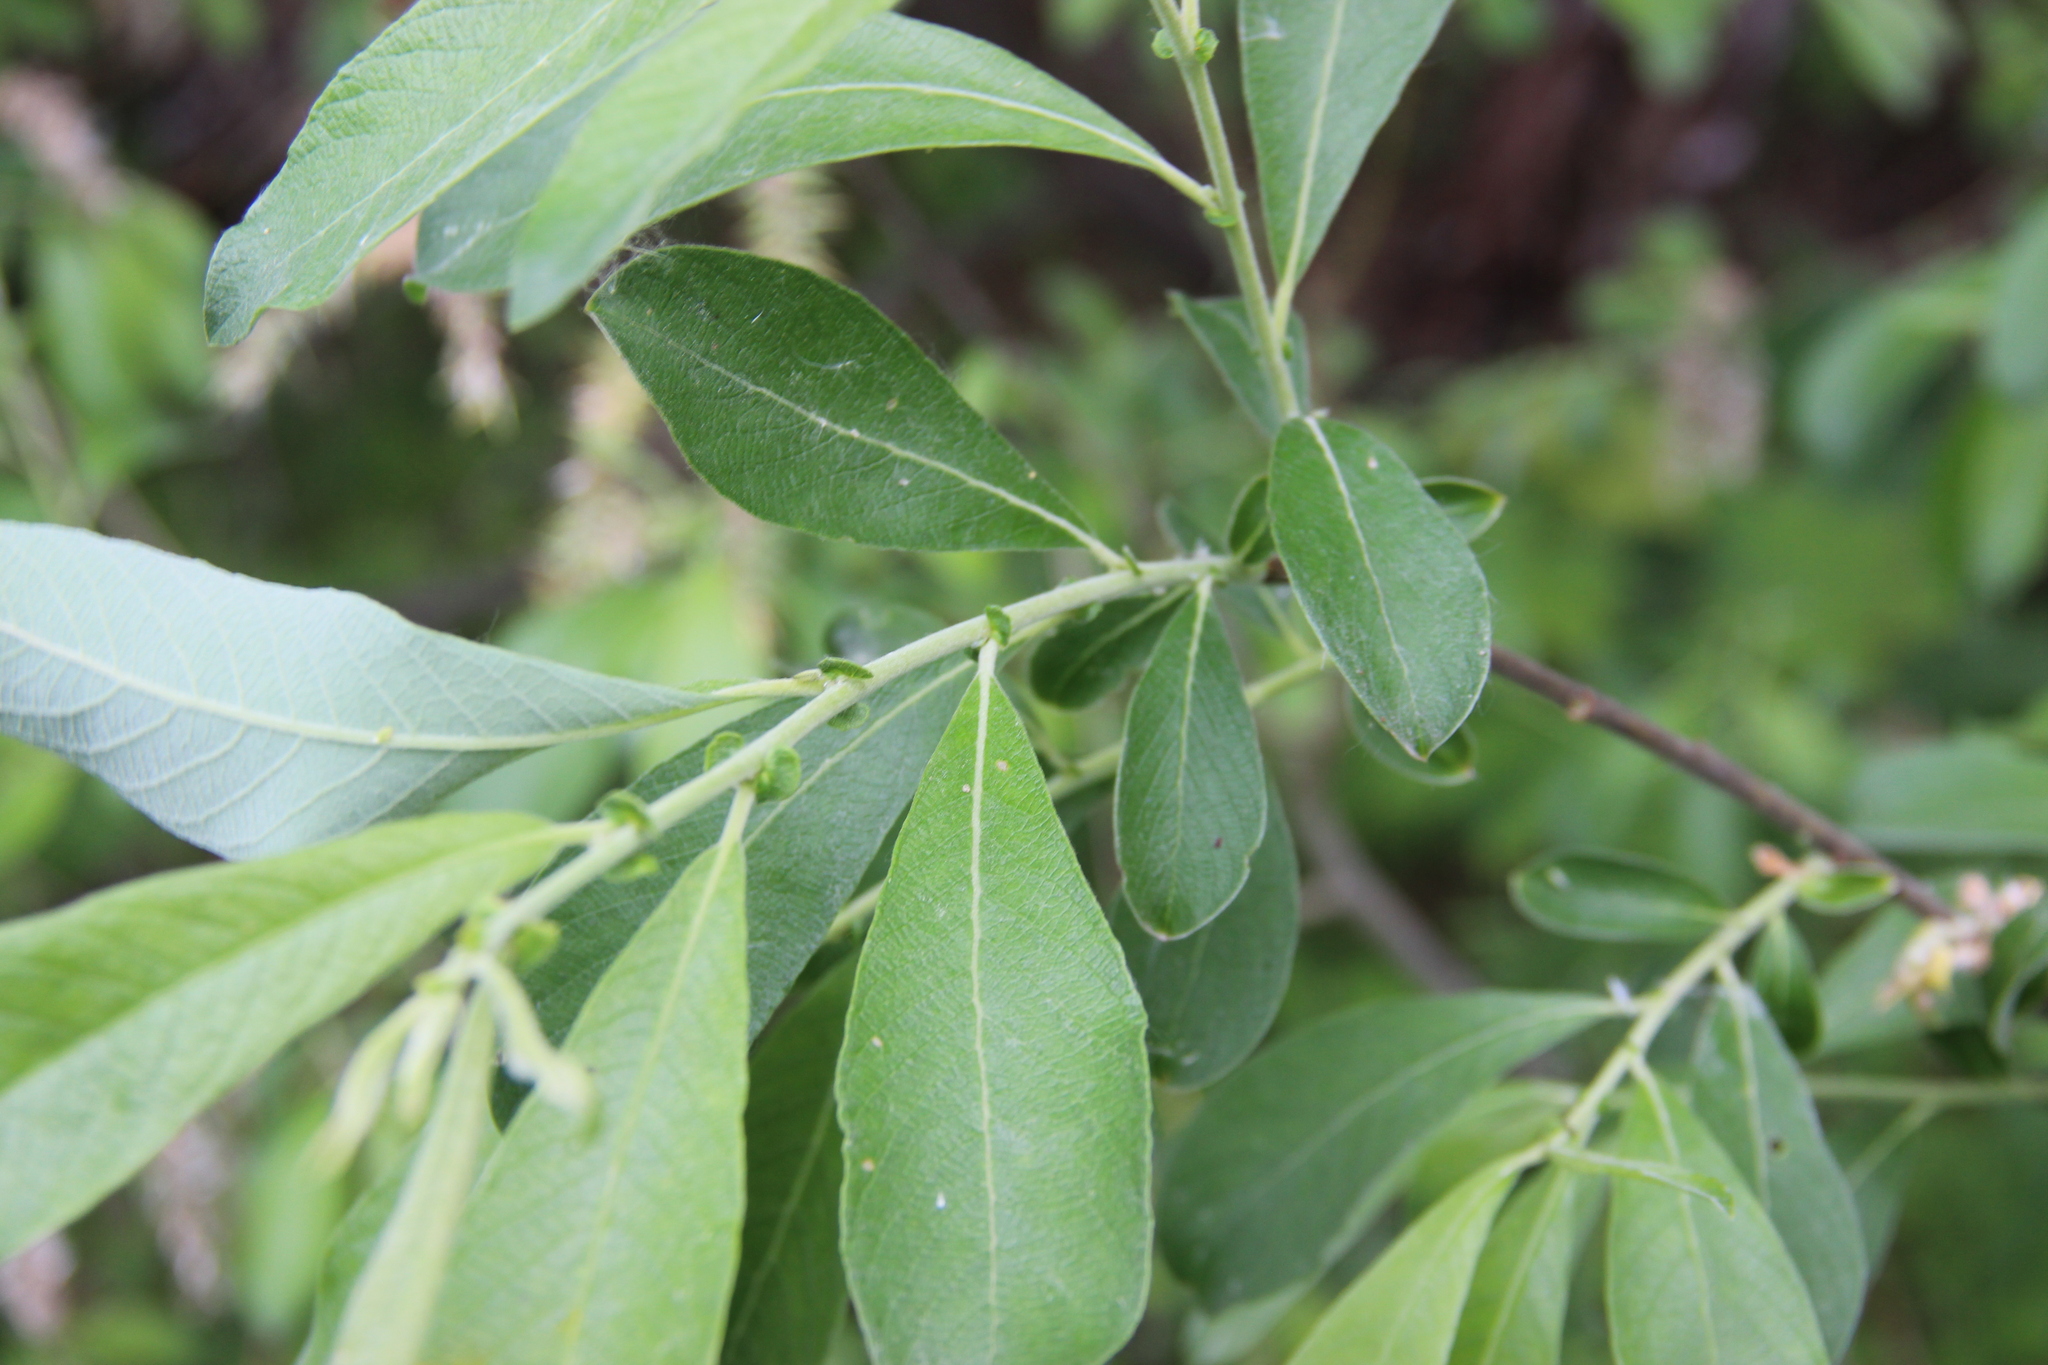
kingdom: Plantae
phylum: Tracheophyta
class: Magnoliopsida
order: Malpighiales
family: Salicaceae
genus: Salix
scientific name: Salix cinerea
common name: Common sallow
